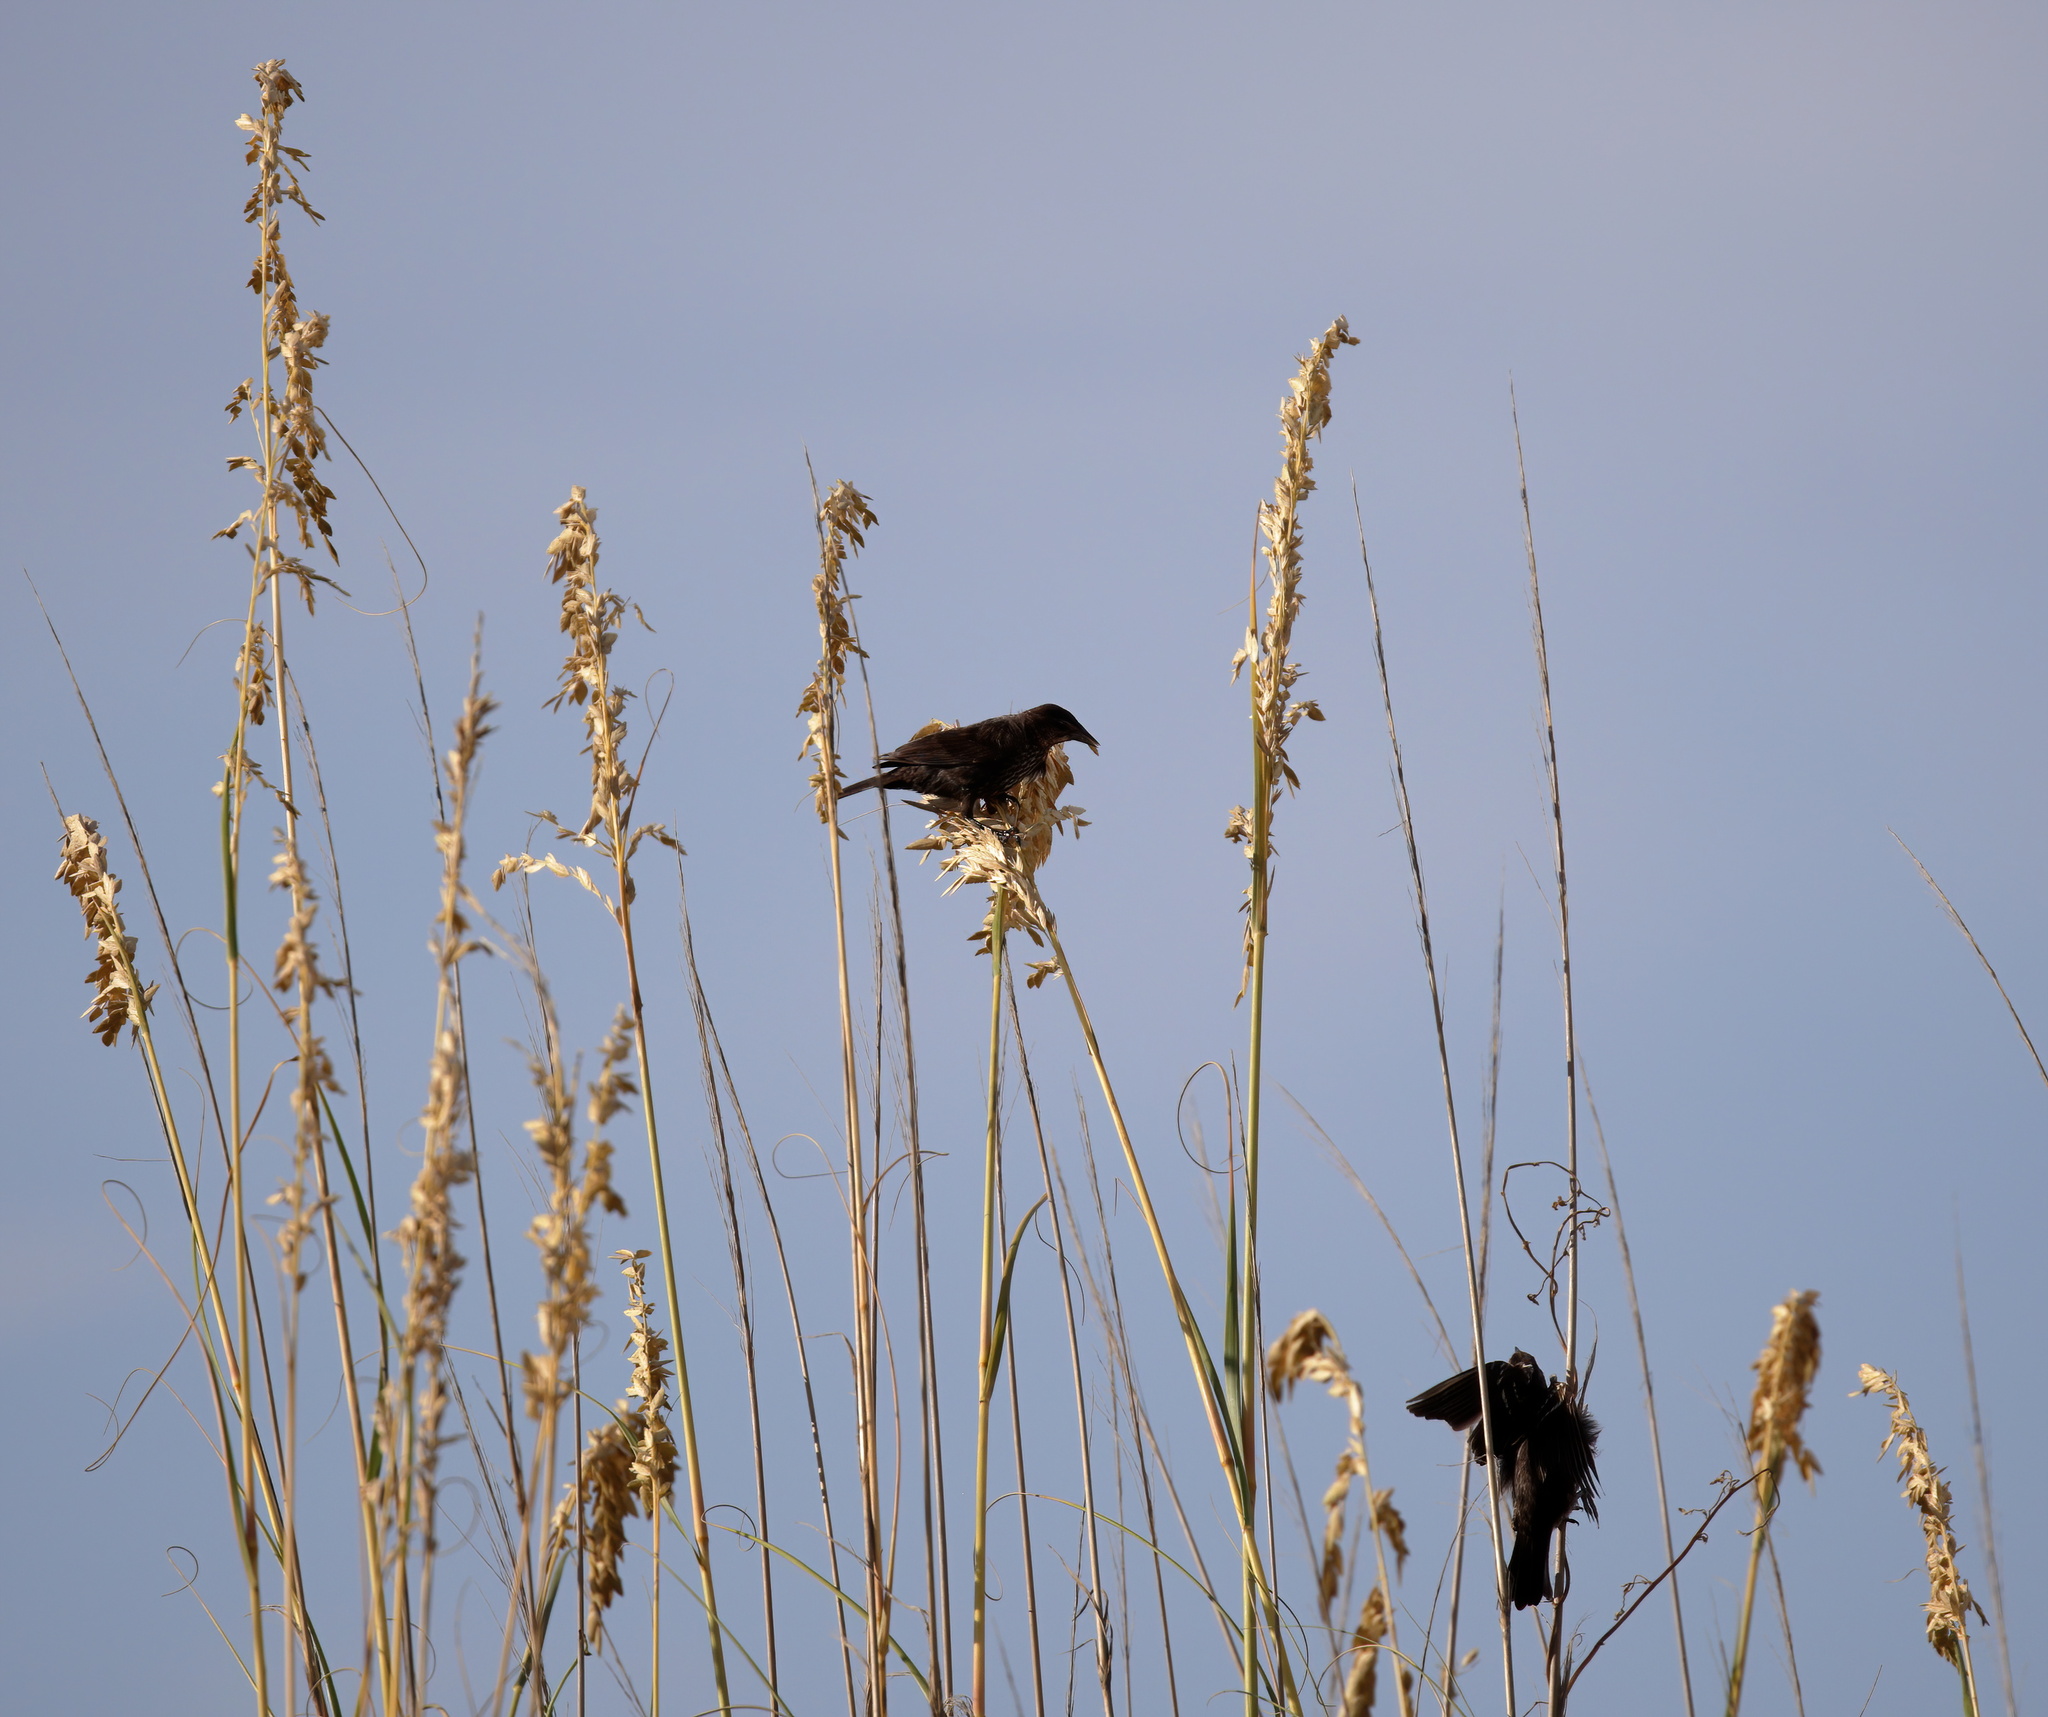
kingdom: Animalia
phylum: Chordata
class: Aves
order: Passeriformes
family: Icteridae
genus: Agelaius
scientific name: Agelaius phoeniceus
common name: Red-winged blackbird
